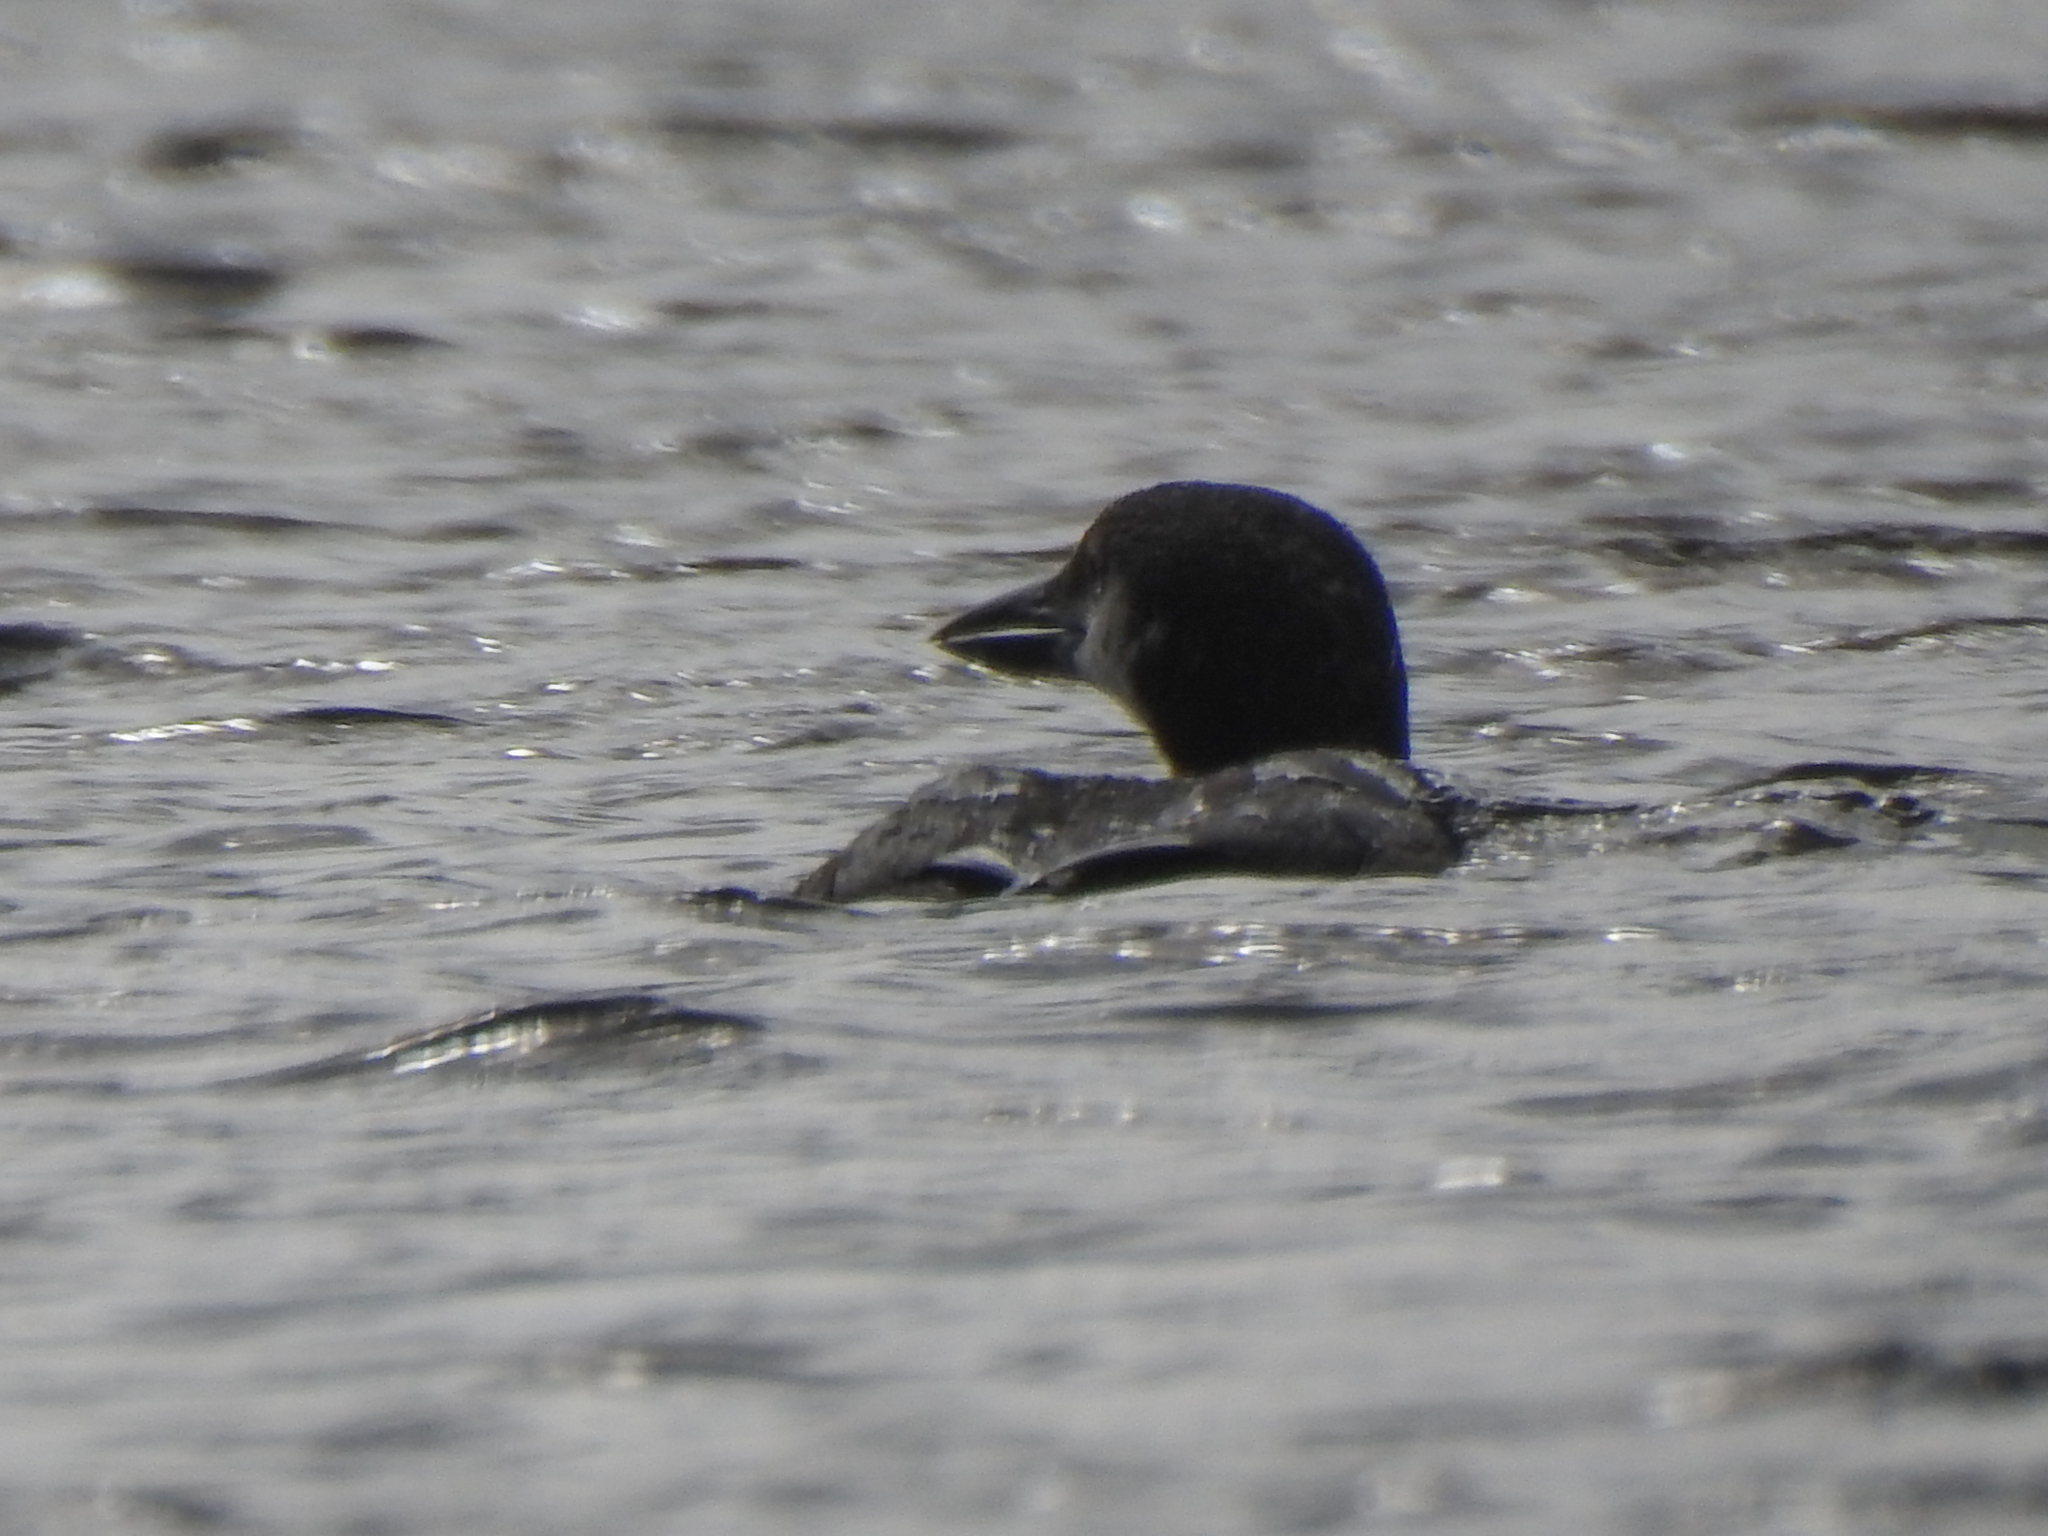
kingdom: Animalia
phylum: Chordata
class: Aves
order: Gaviiformes
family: Gaviidae
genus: Gavia
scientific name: Gavia immer
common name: Common loon
